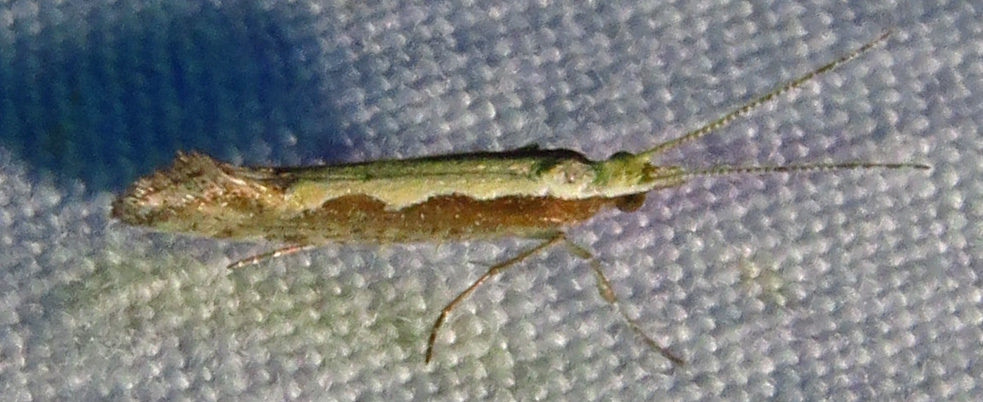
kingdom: Animalia
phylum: Arthropoda
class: Insecta
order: Lepidoptera
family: Plutellidae
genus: Plutella
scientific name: Plutella xylostella
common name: Diamond-back moth
